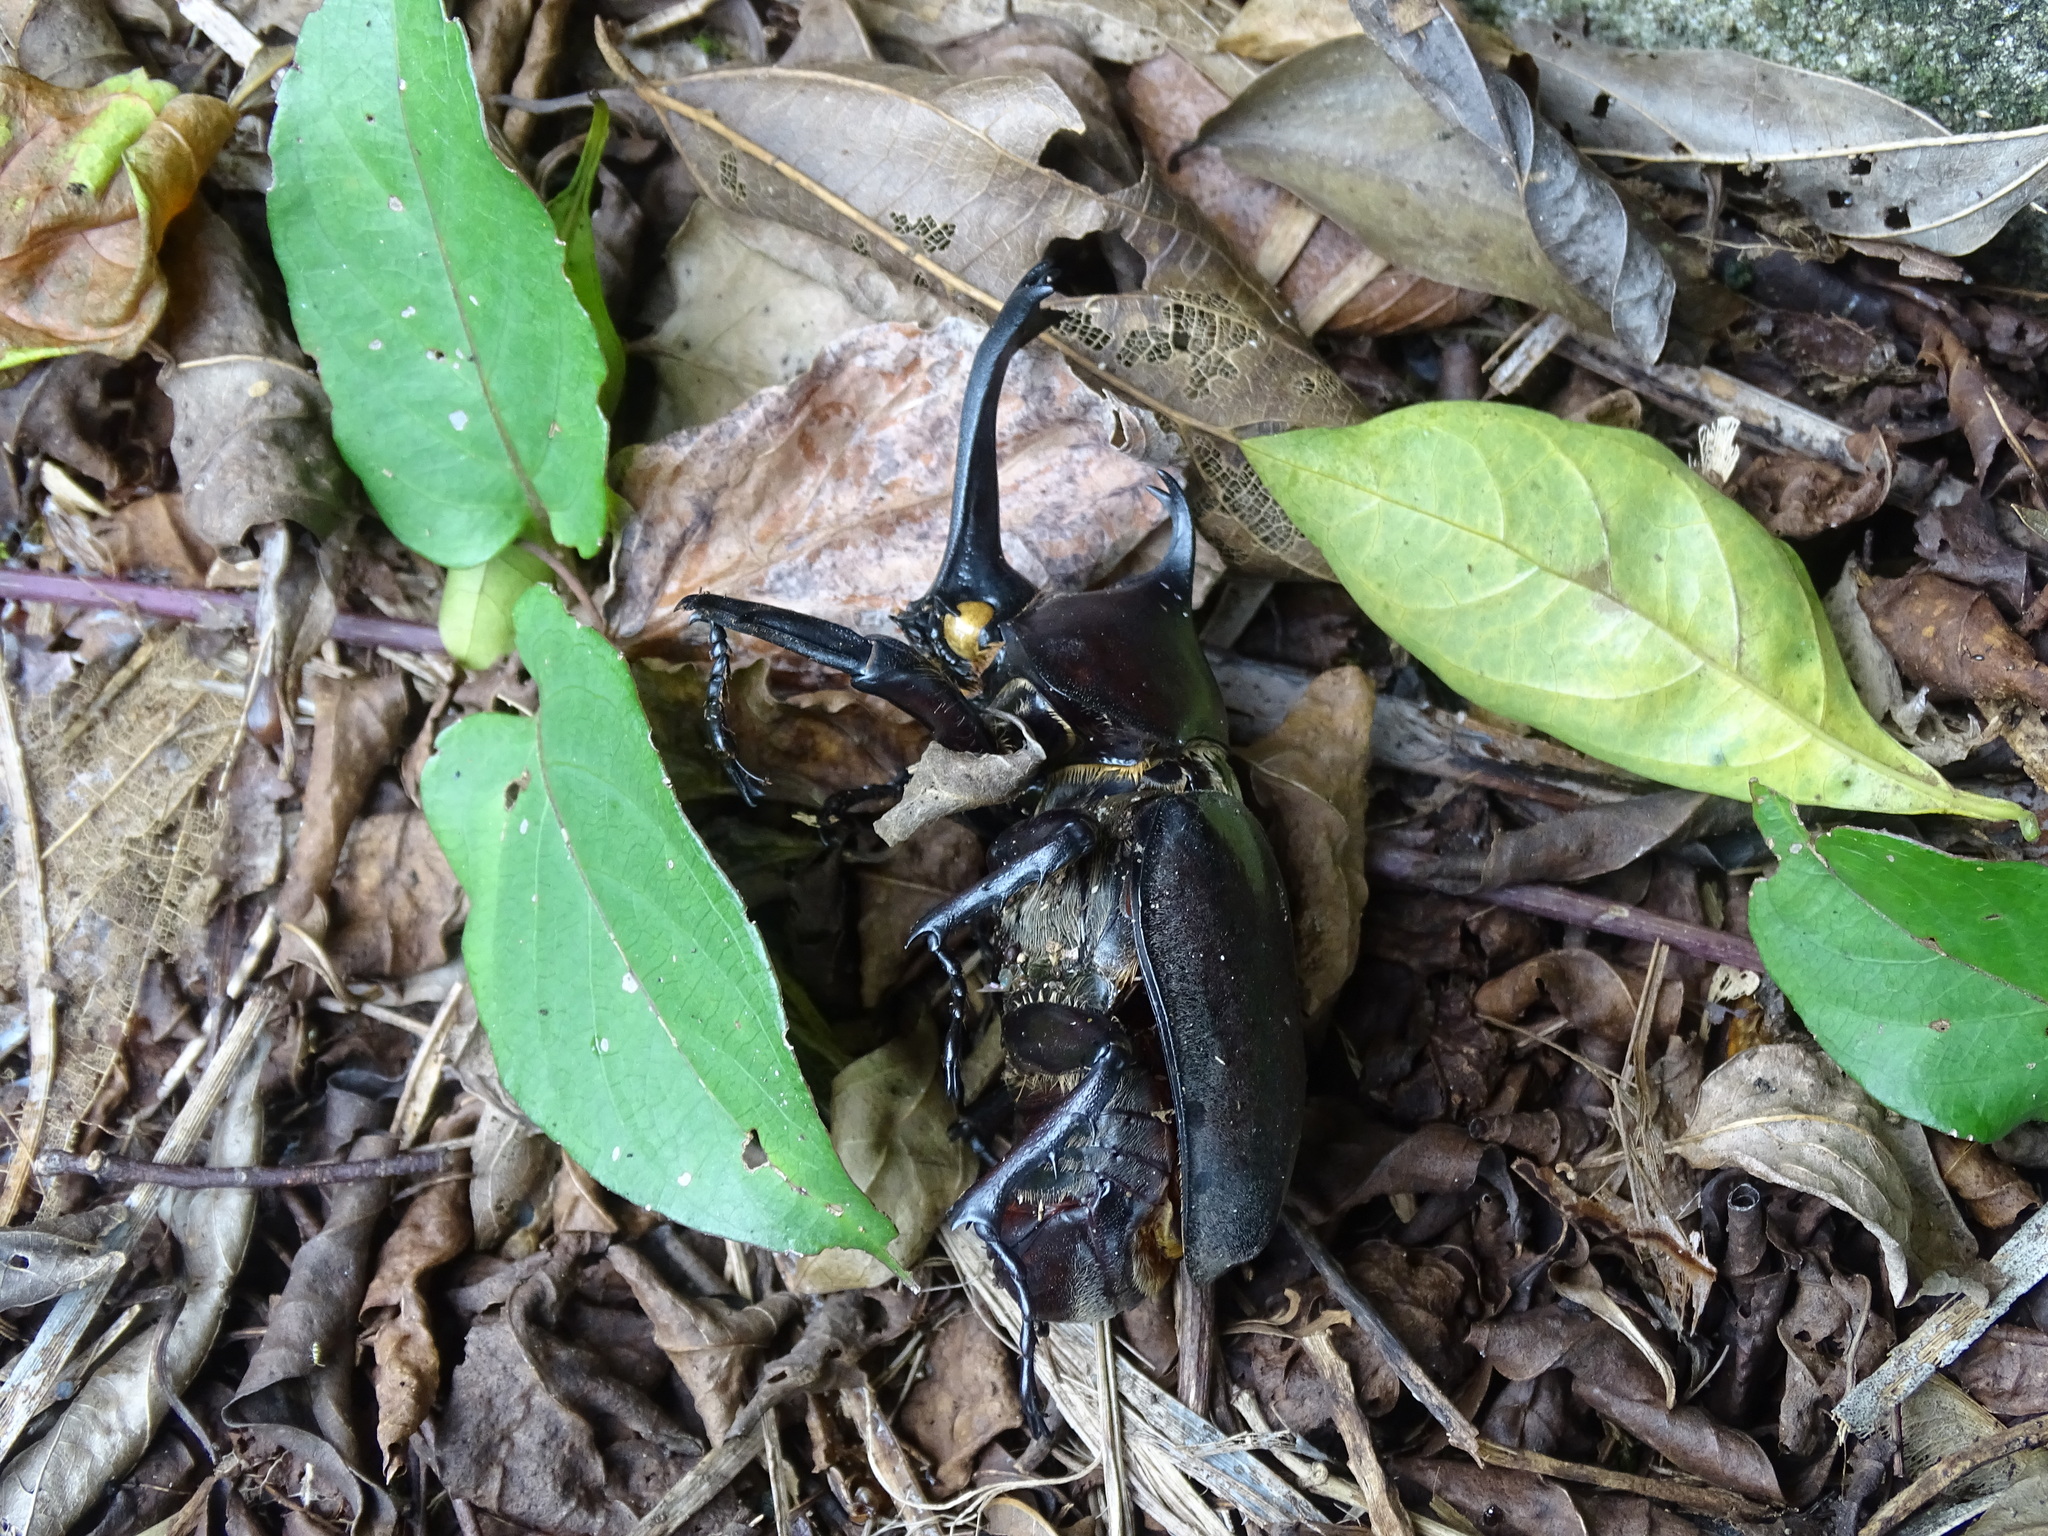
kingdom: Animalia
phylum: Arthropoda
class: Insecta
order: Coleoptera
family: Scarabaeidae
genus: Trypoxylus
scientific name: Trypoxylus dichotomus
